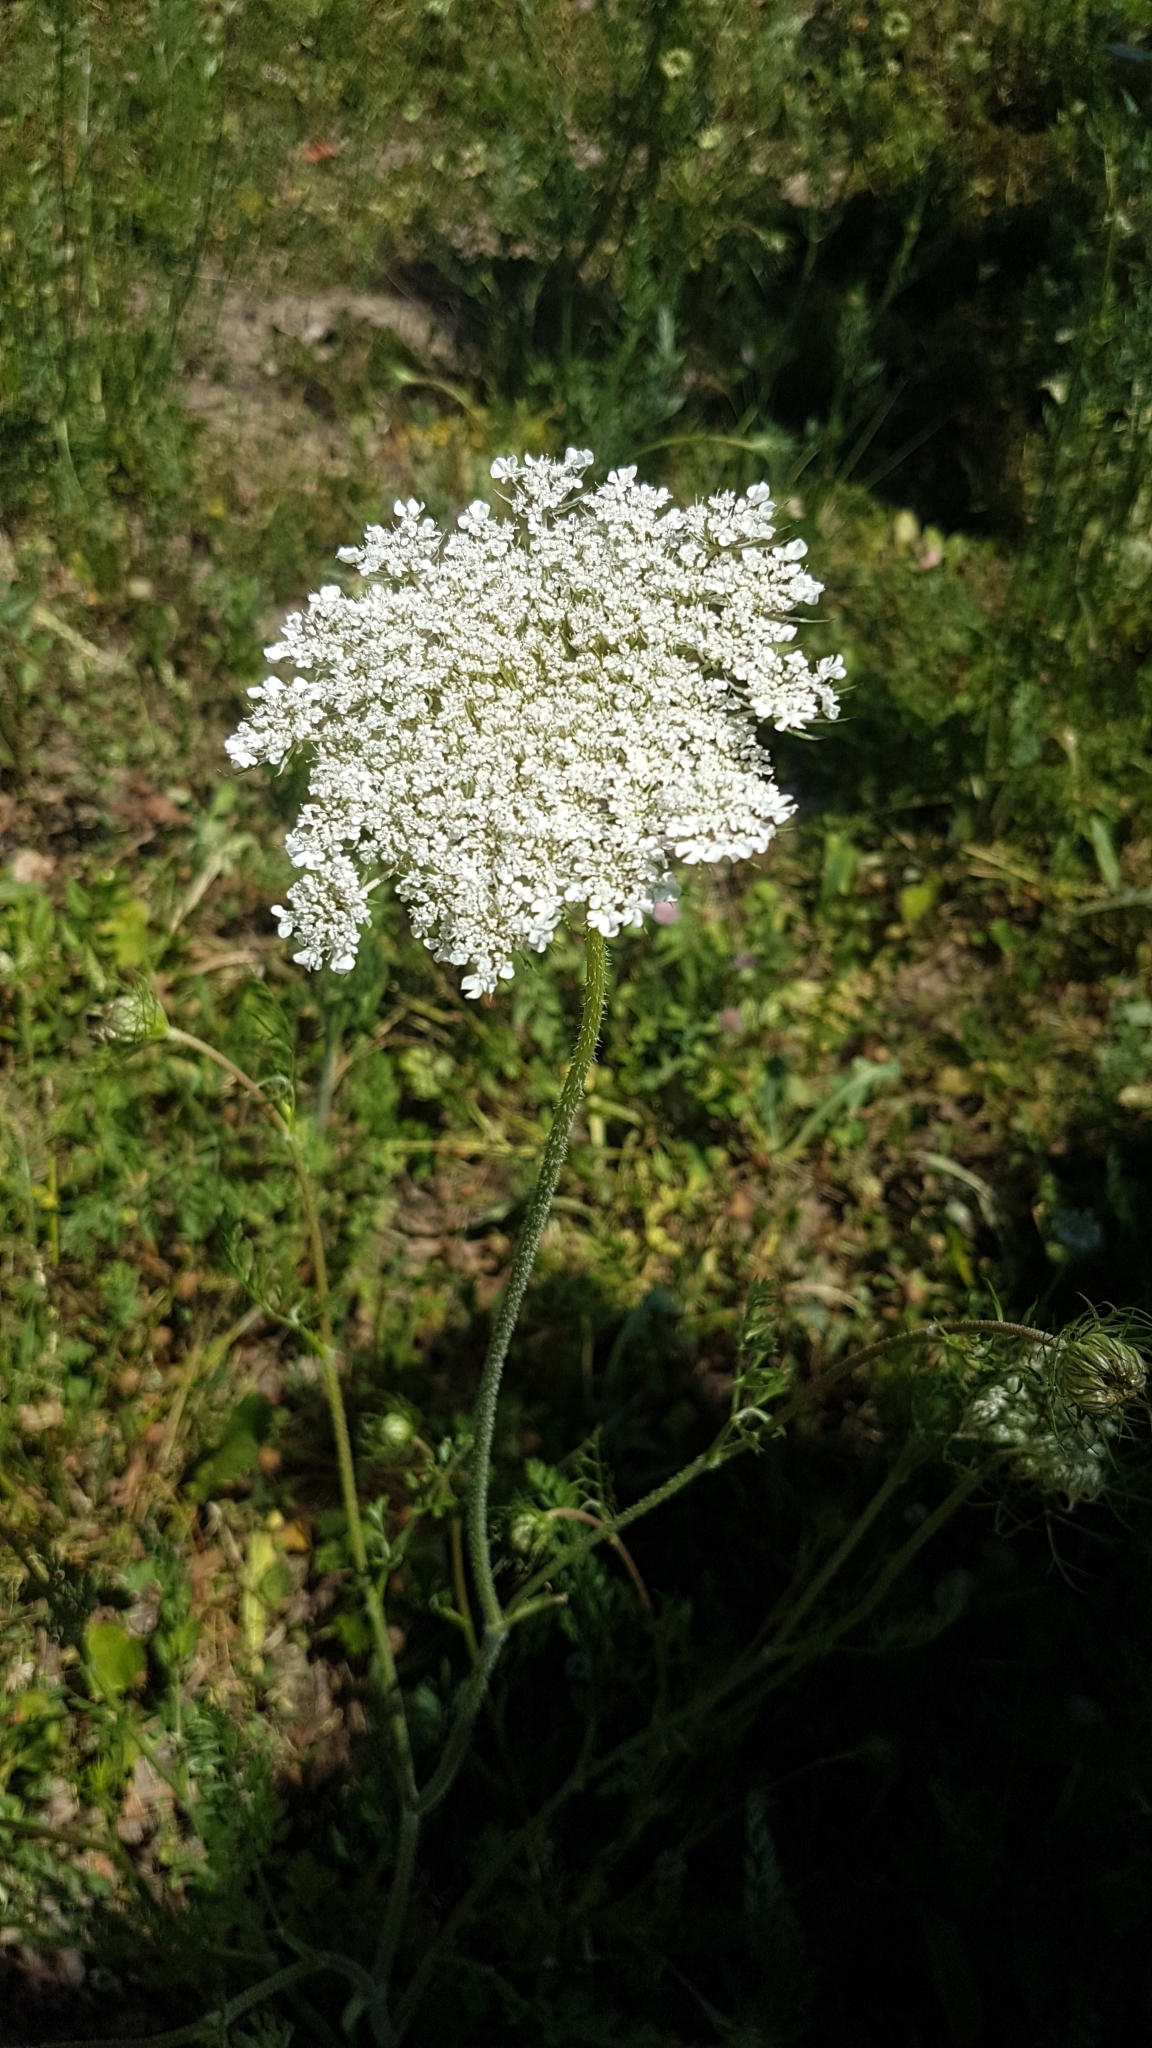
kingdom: Plantae
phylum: Tracheophyta
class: Magnoliopsida
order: Apiales
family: Apiaceae
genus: Daucus
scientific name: Daucus carota
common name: Wild carrot
